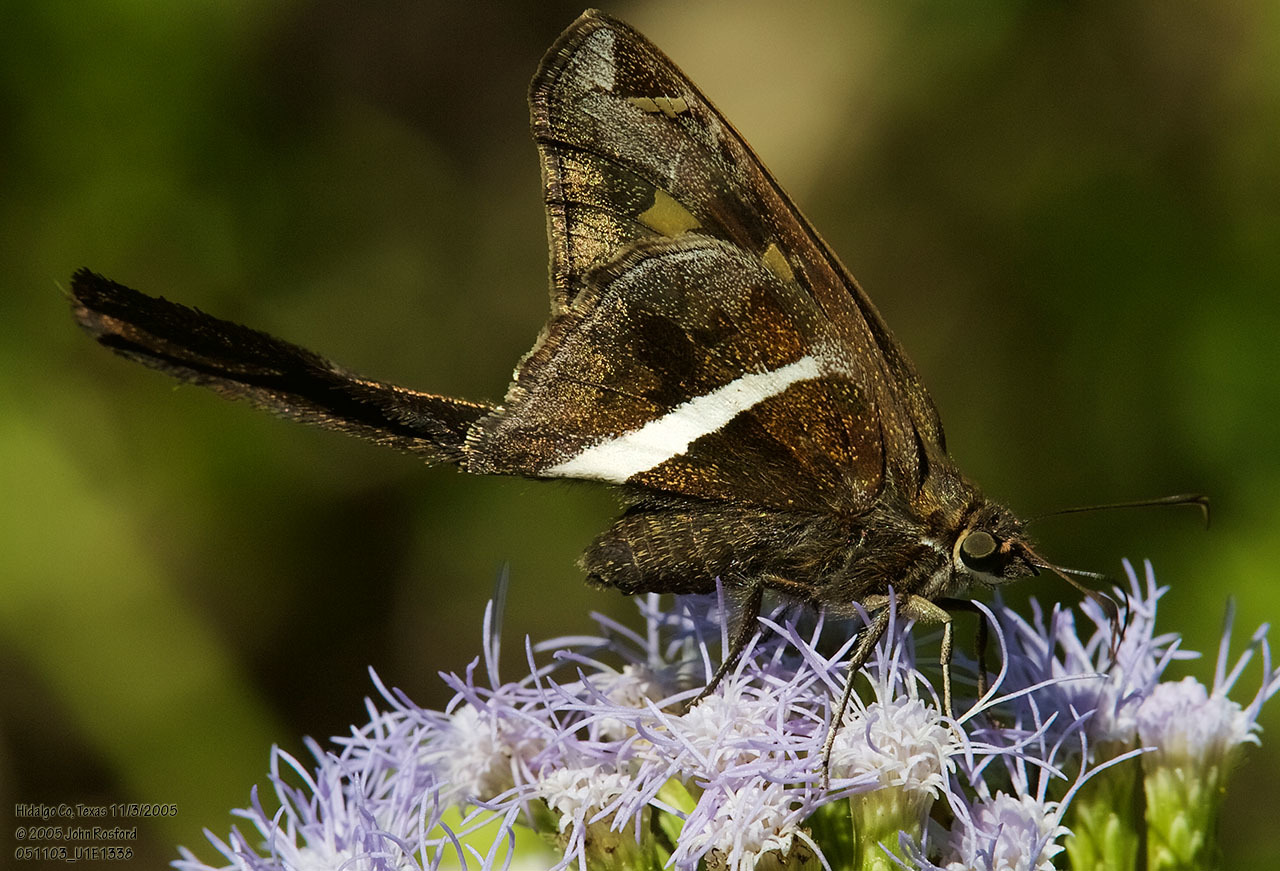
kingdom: Animalia
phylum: Arthropoda
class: Insecta
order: Lepidoptera
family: Hesperiidae
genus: Chioides
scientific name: Chioides catillus
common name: Silverbanded skipper
